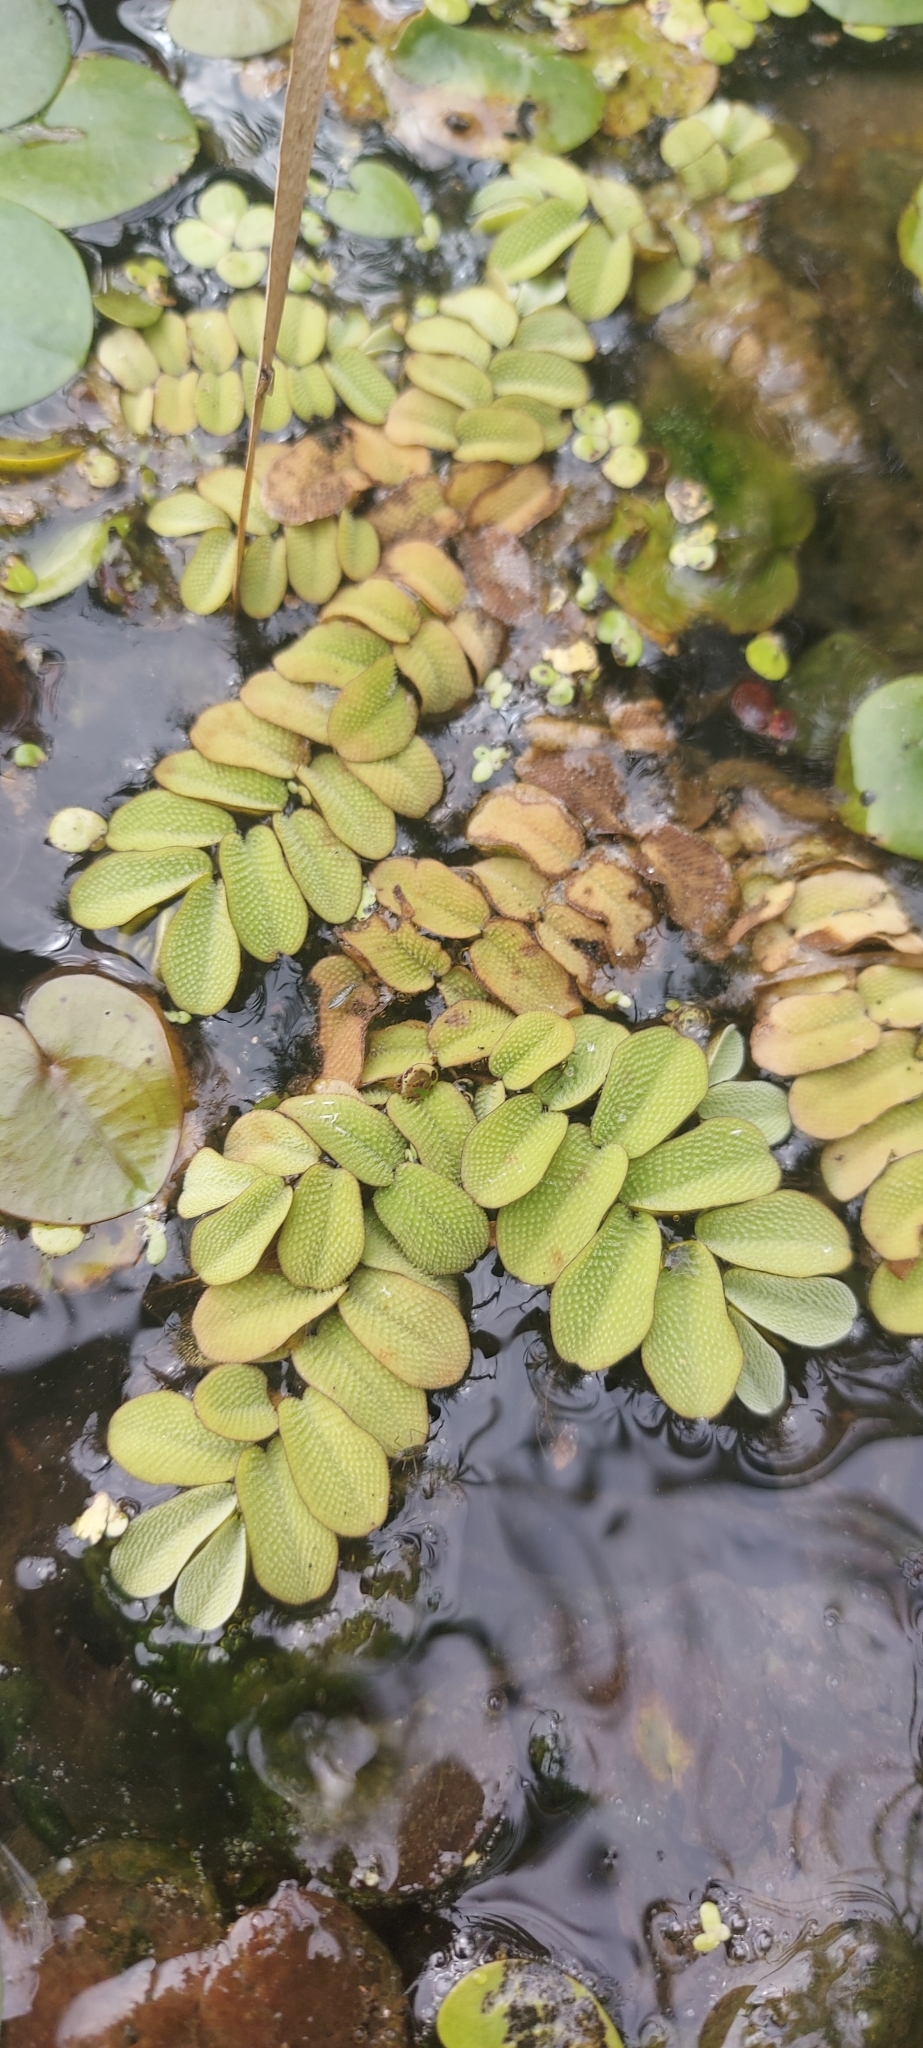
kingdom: Plantae
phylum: Tracheophyta
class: Polypodiopsida
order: Salviniales
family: Salviniaceae
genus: Salvinia
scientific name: Salvinia natans
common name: Floating fern
